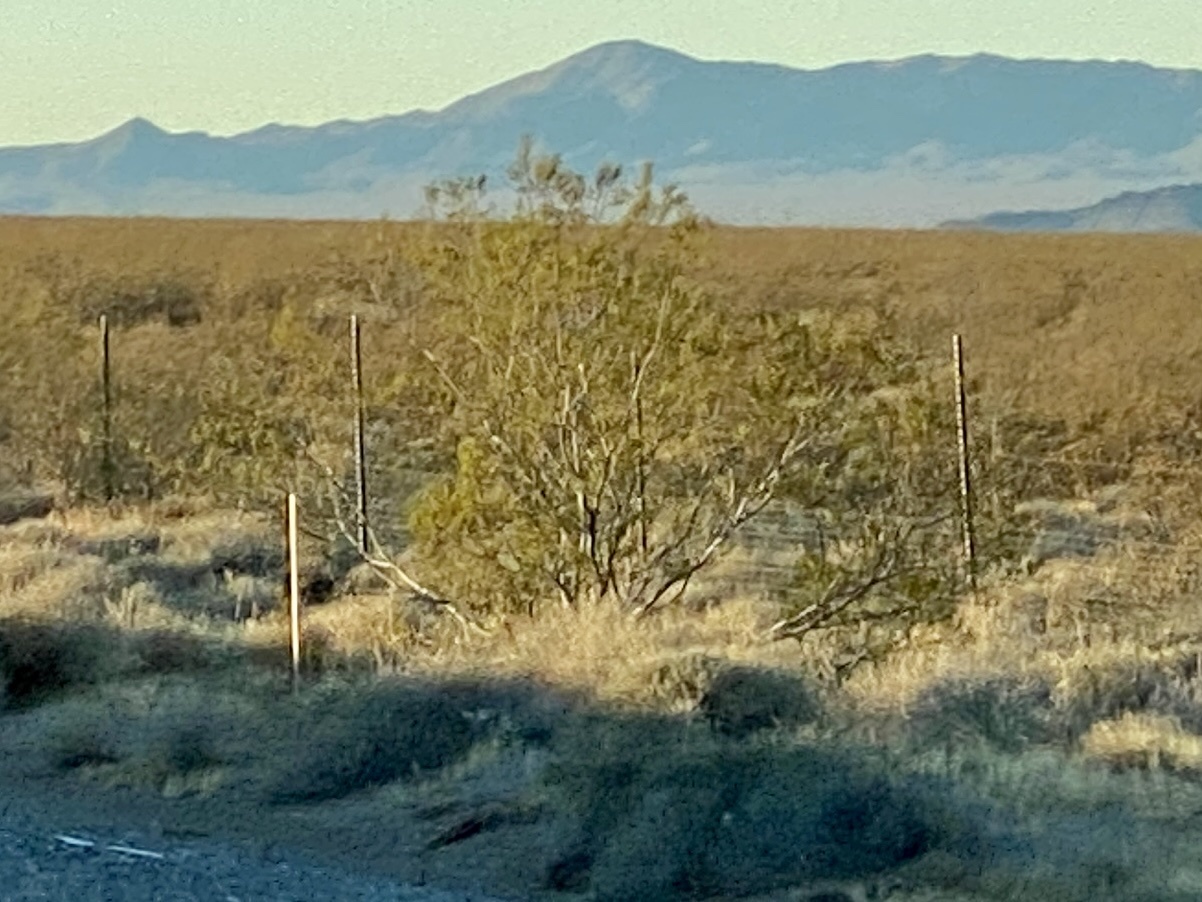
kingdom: Plantae
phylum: Tracheophyta
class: Magnoliopsida
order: Zygophyllales
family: Zygophyllaceae
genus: Larrea
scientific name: Larrea tridentata
